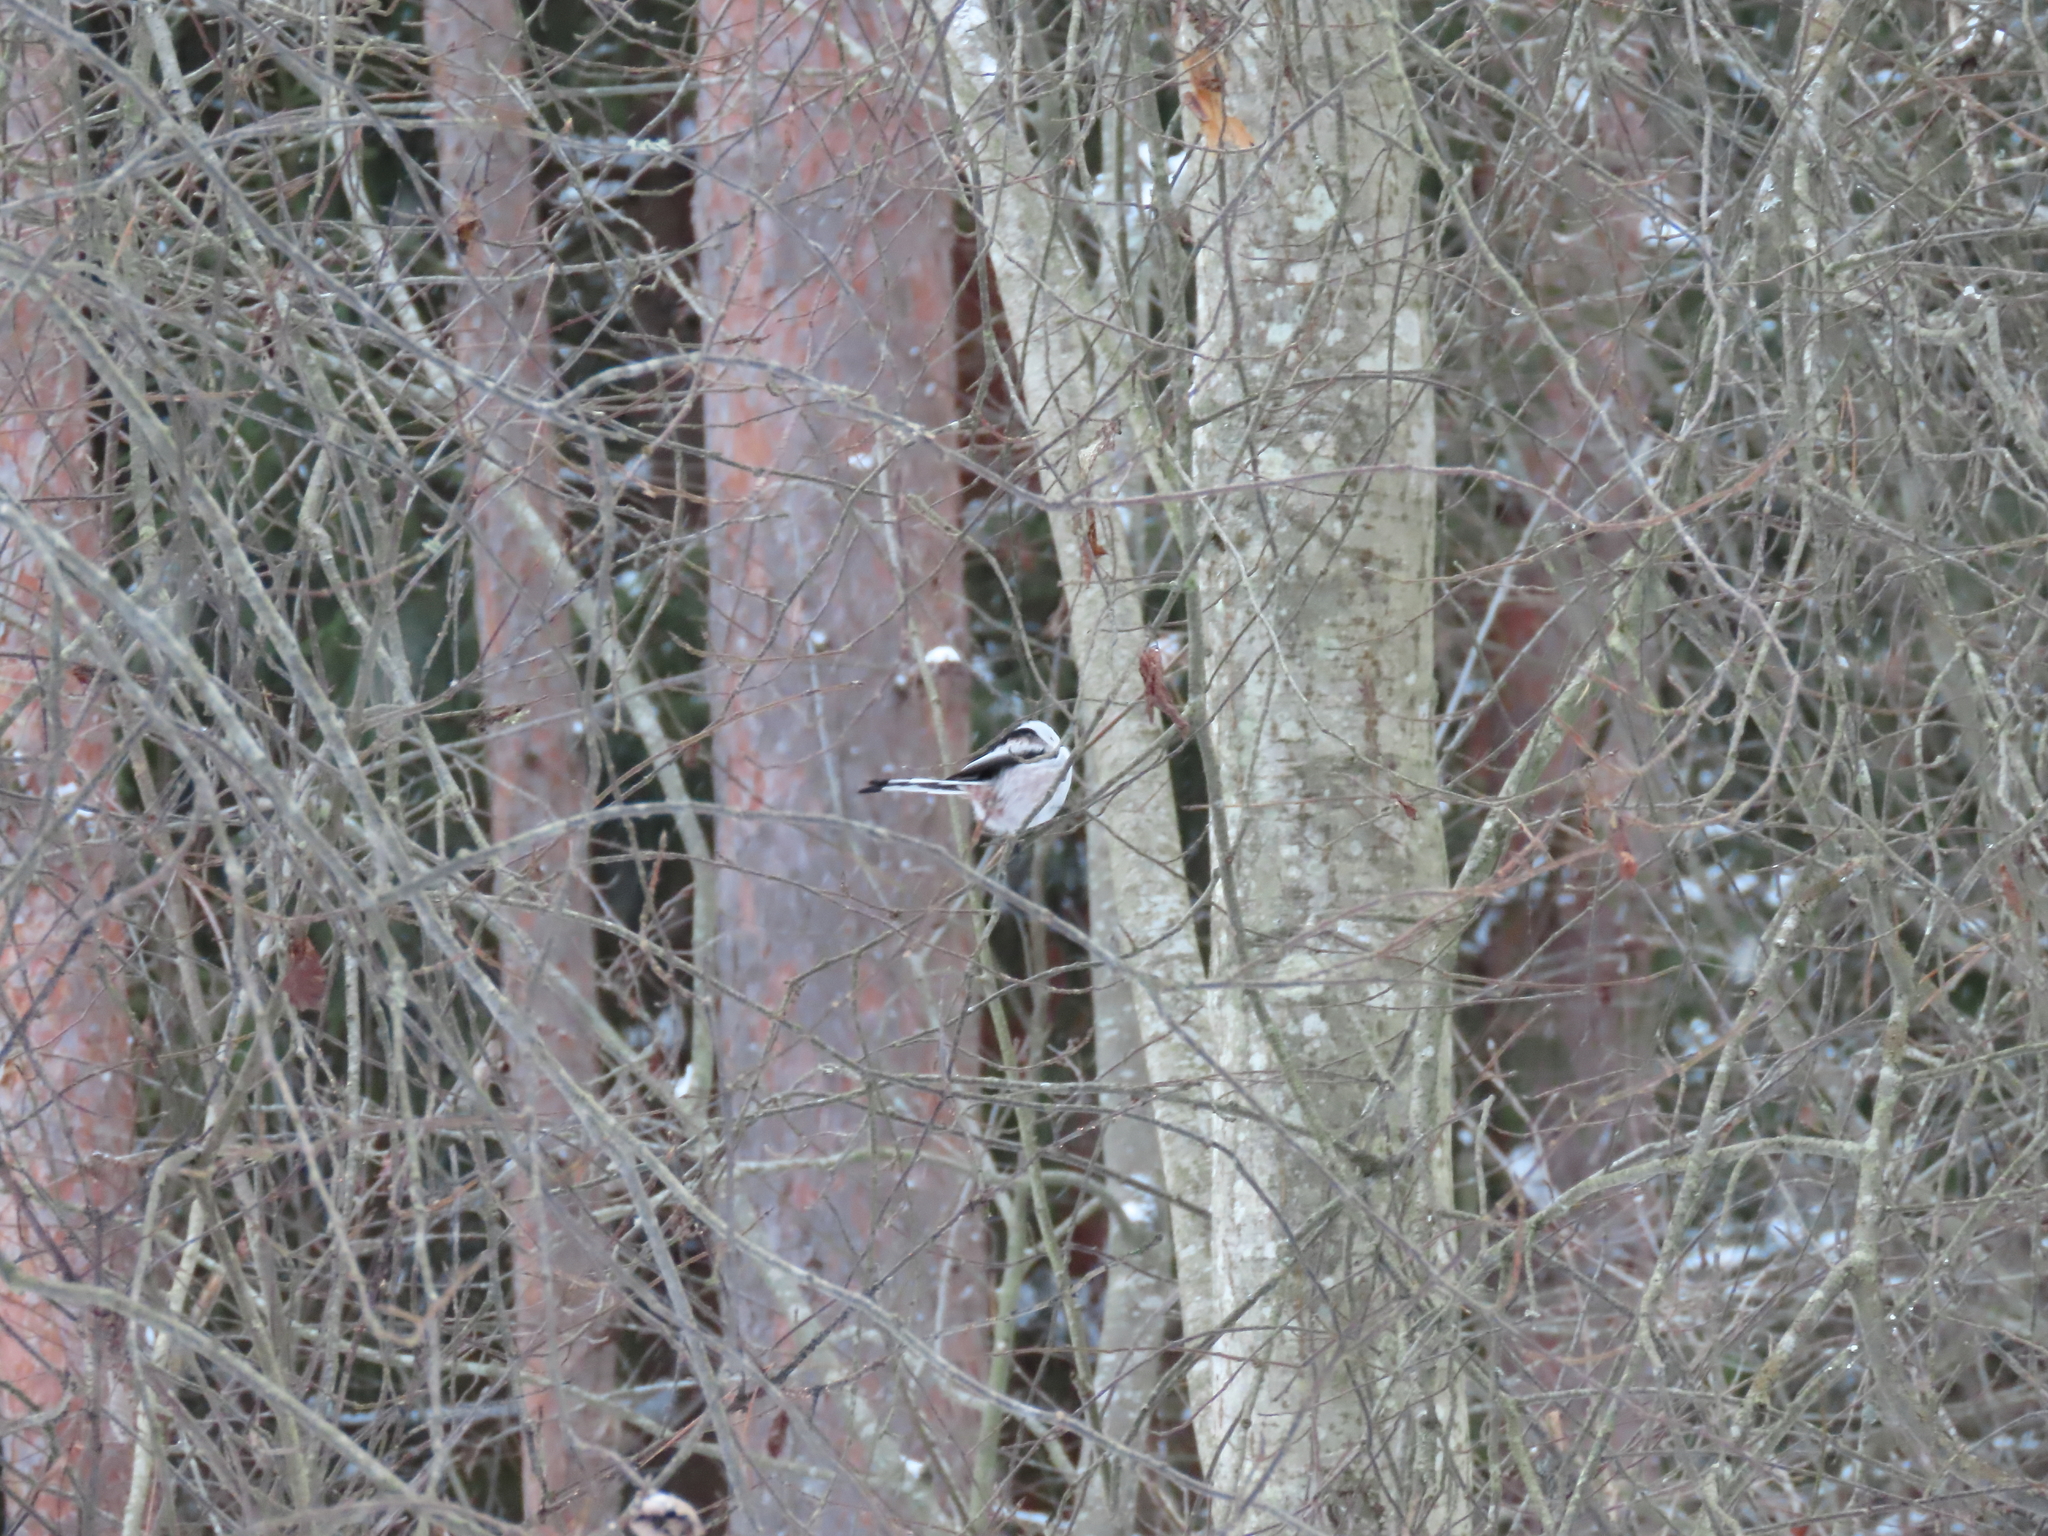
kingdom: Animalia
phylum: Chordata
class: Aves
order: Passeriformes
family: Aegithalidae
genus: Aegithalos
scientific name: Aegithalos caudatus
